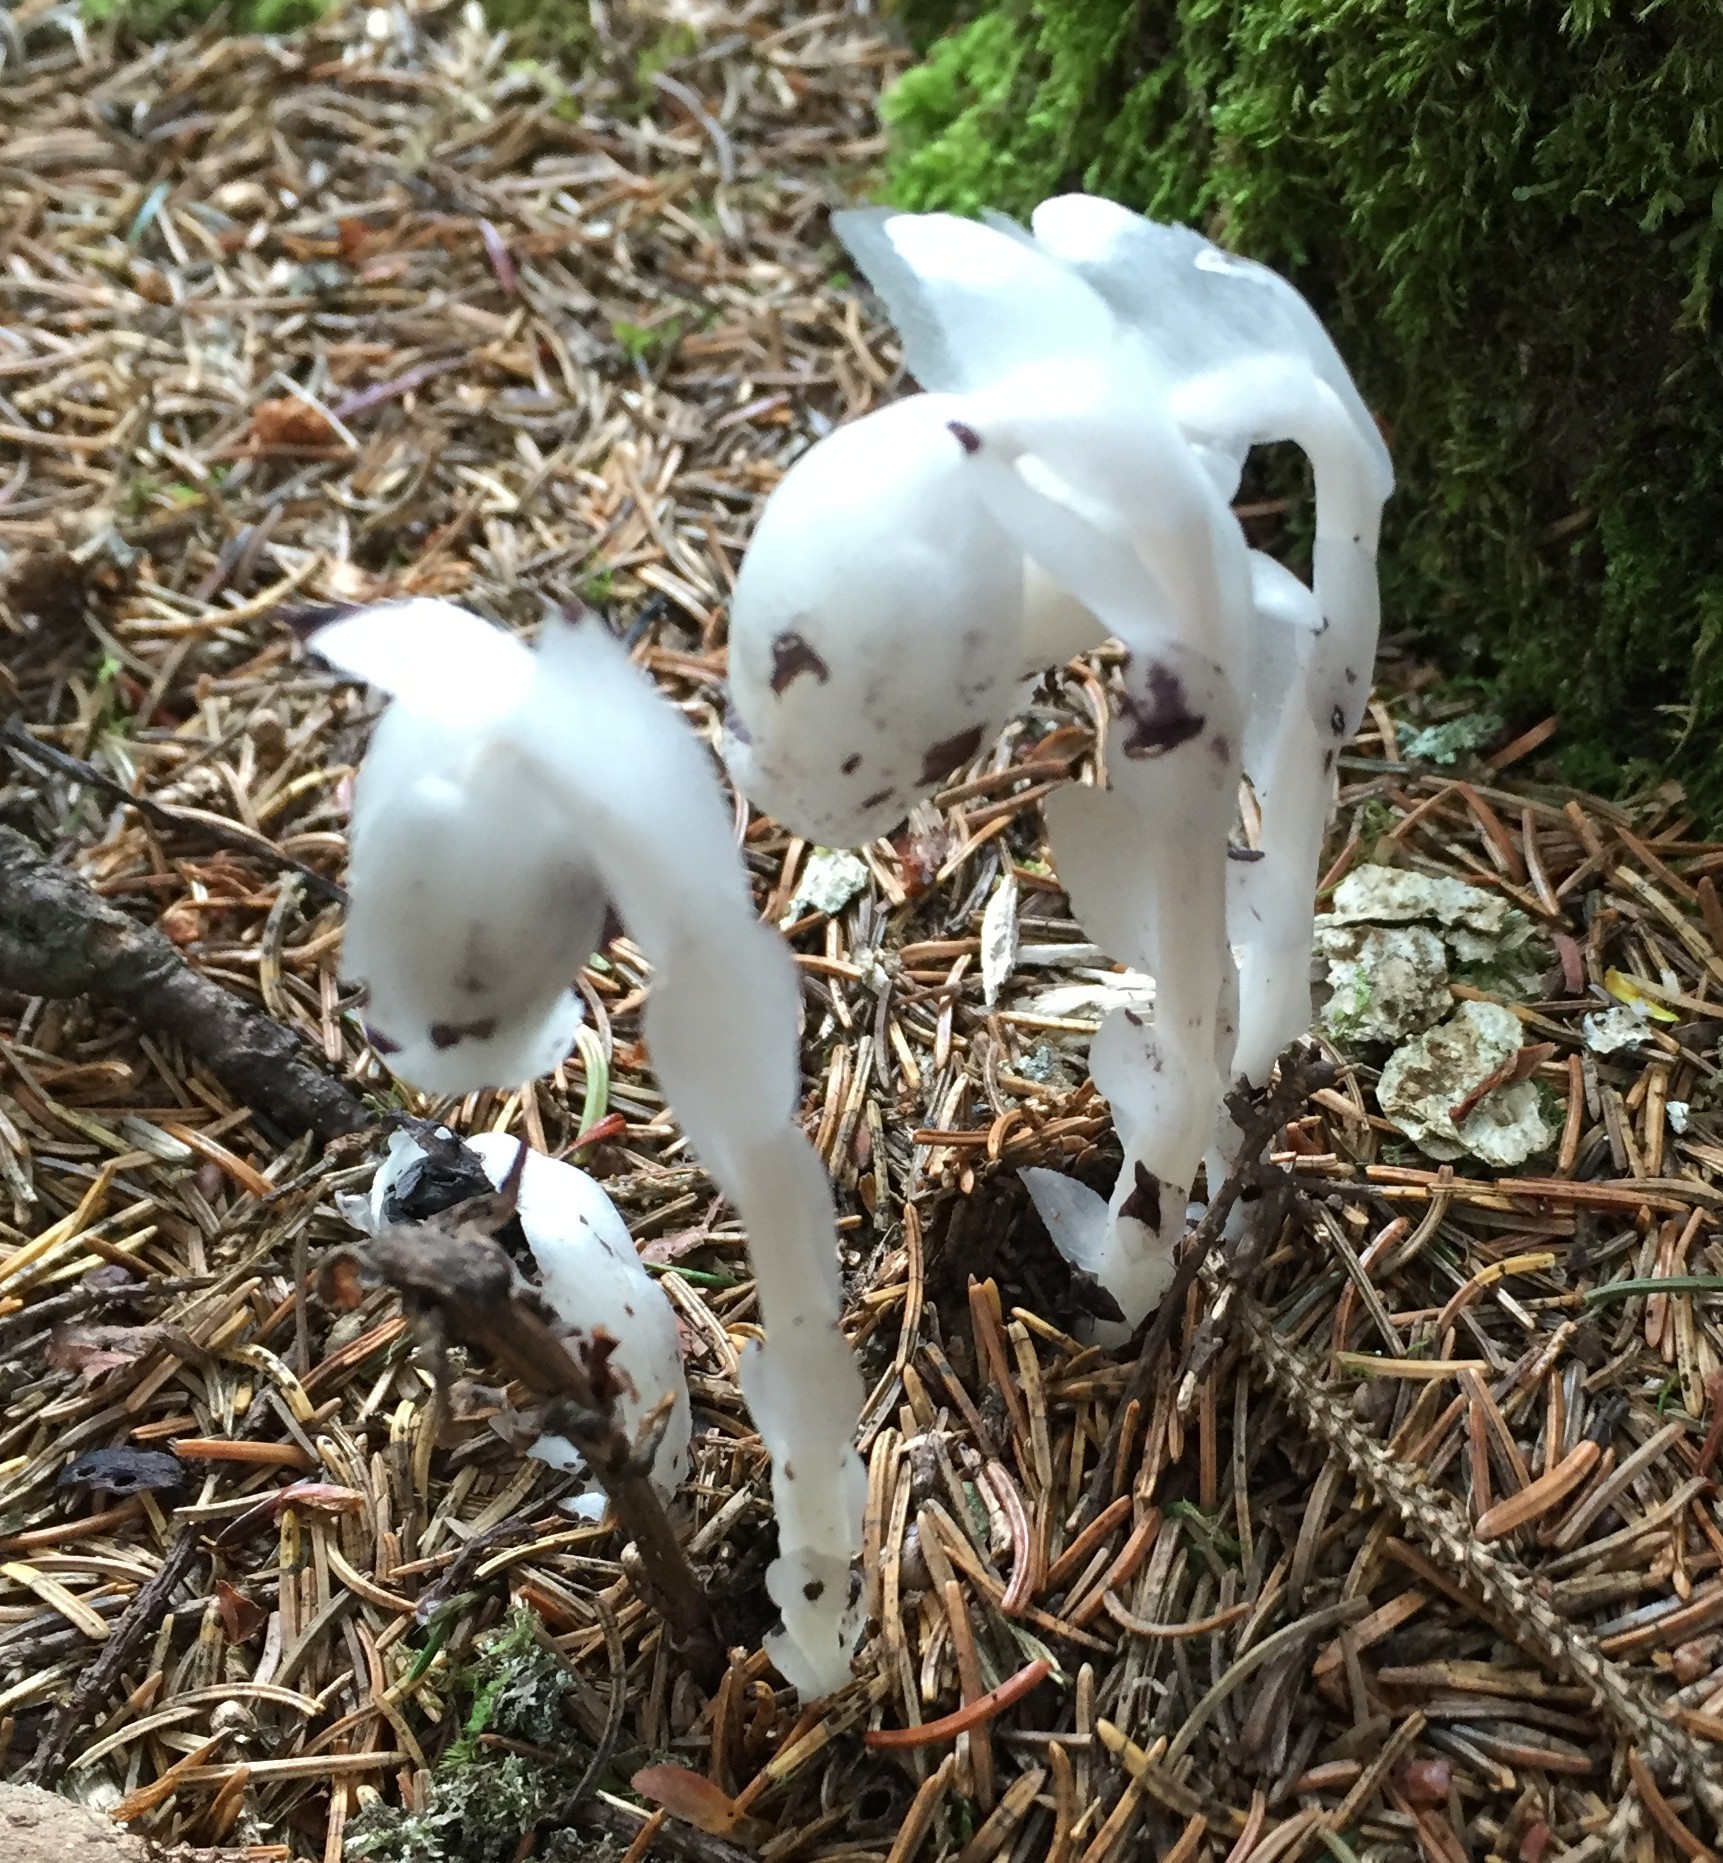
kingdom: Plantae
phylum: Tracheophyta
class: Magnoliopsida
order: Ericales
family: Ericaceae
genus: Monotropa
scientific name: Monotropa uniflora
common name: Convulsion root
